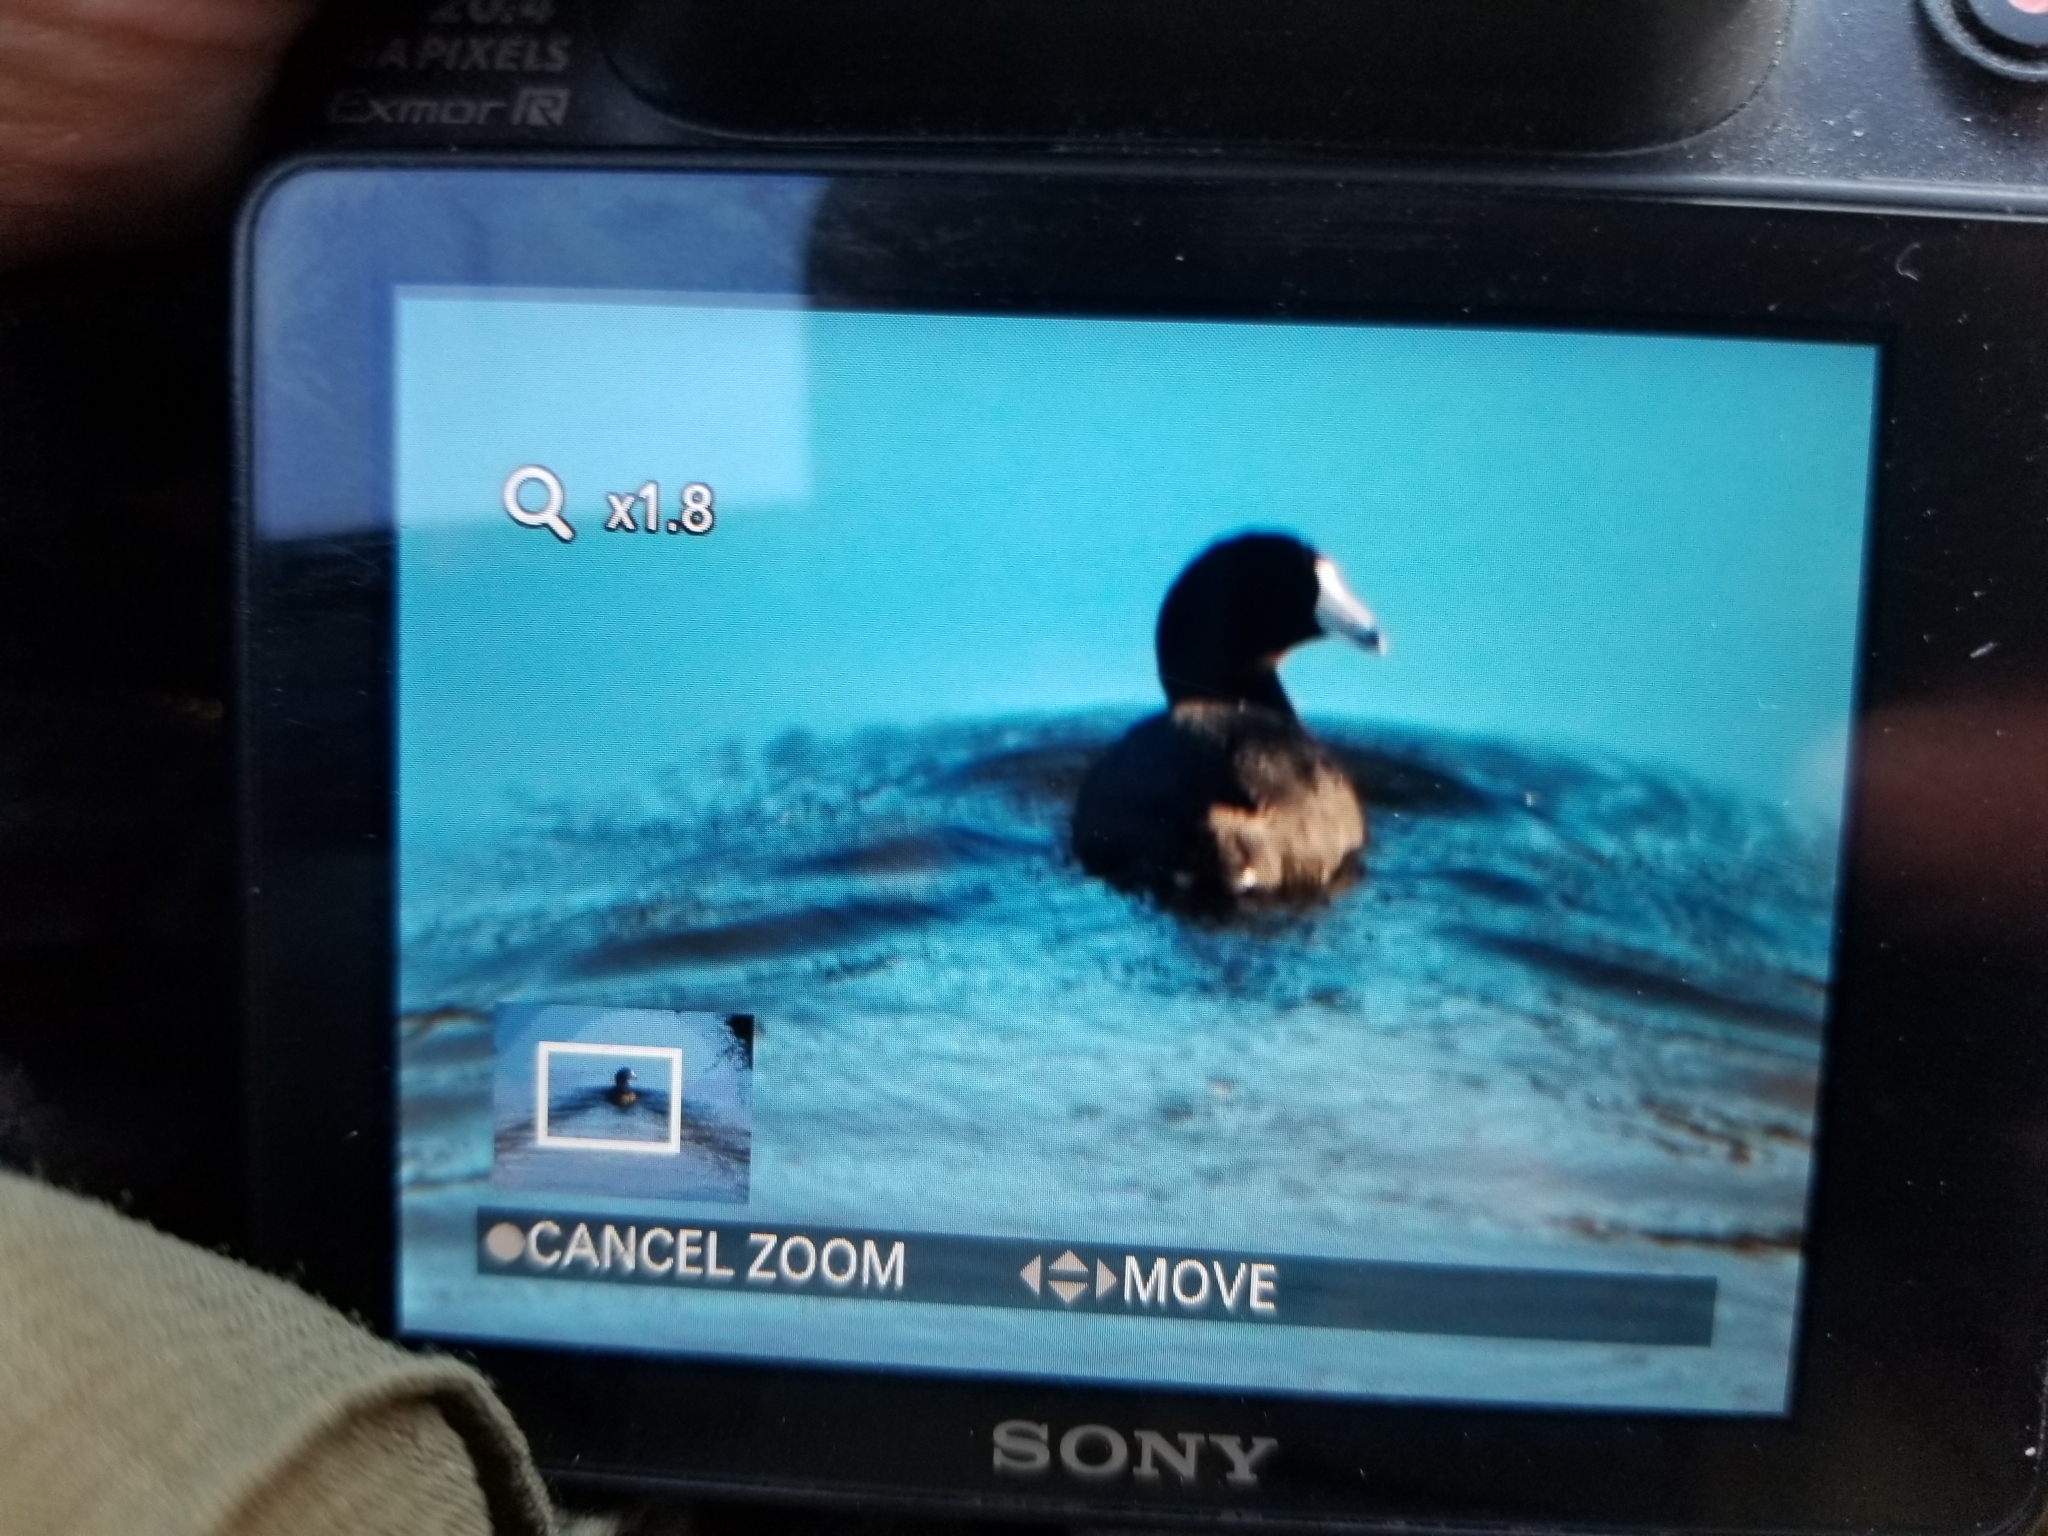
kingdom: Animalia
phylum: Chordata
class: Aves
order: Gruiformes
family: Rallidae
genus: Fulica
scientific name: Fulica americana
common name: American coot
